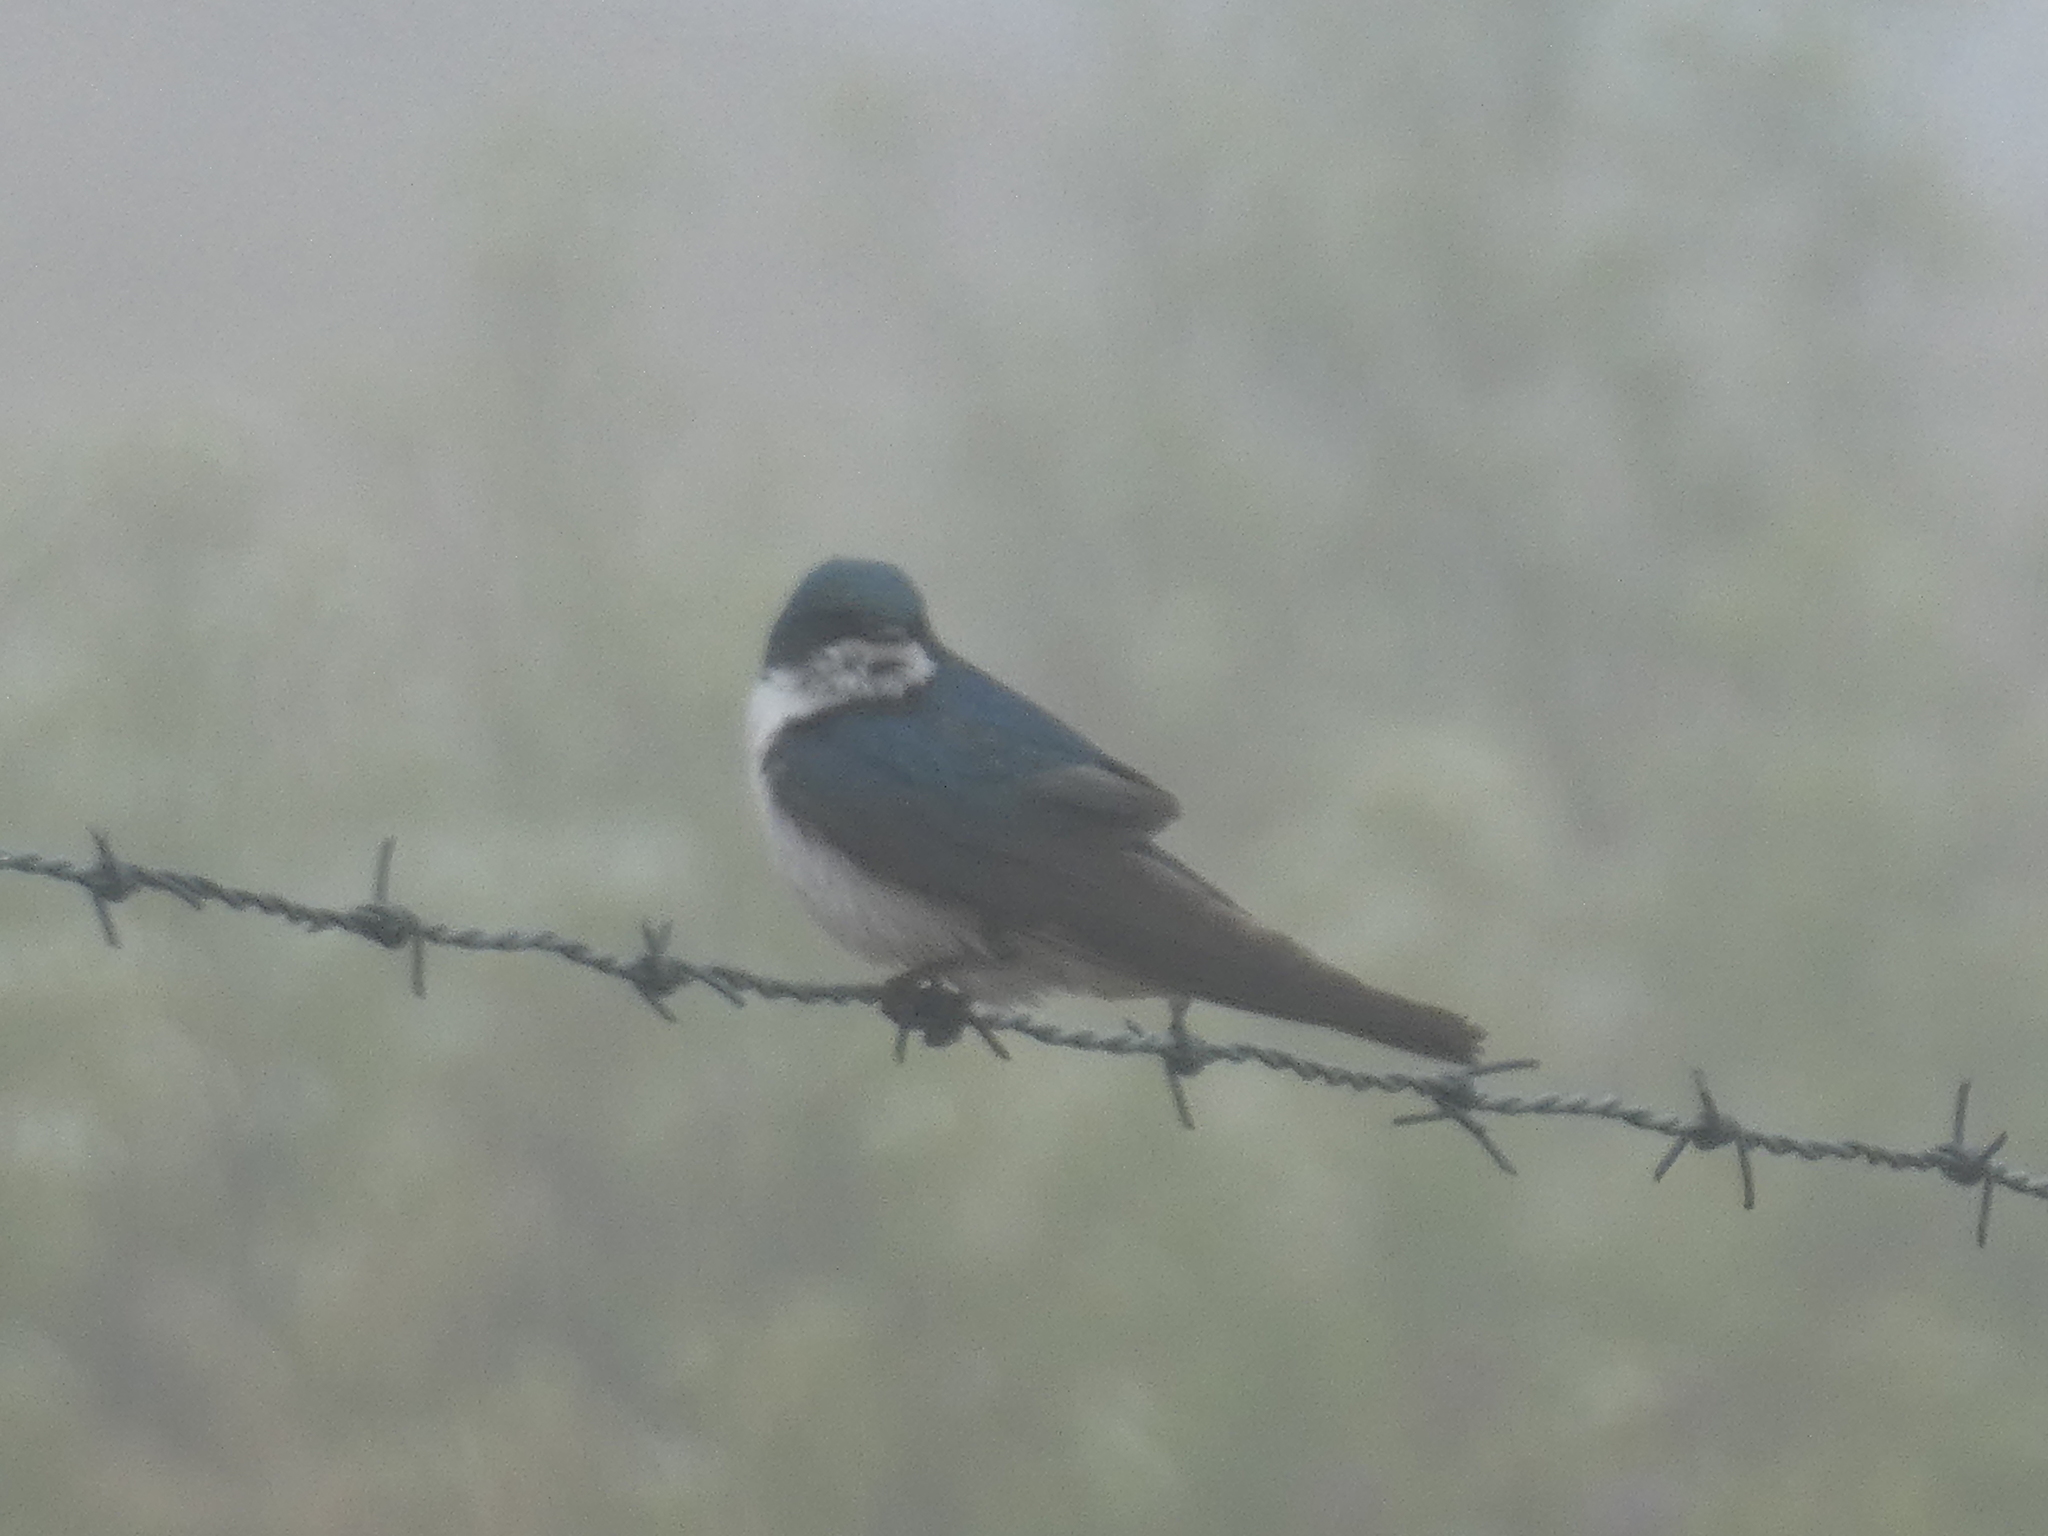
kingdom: Animalia
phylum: Chordata
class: Aves
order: Passeriformes
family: Hirundinidae
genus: Tachycineta
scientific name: Tachycineta bicolor
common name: Tree swallow
